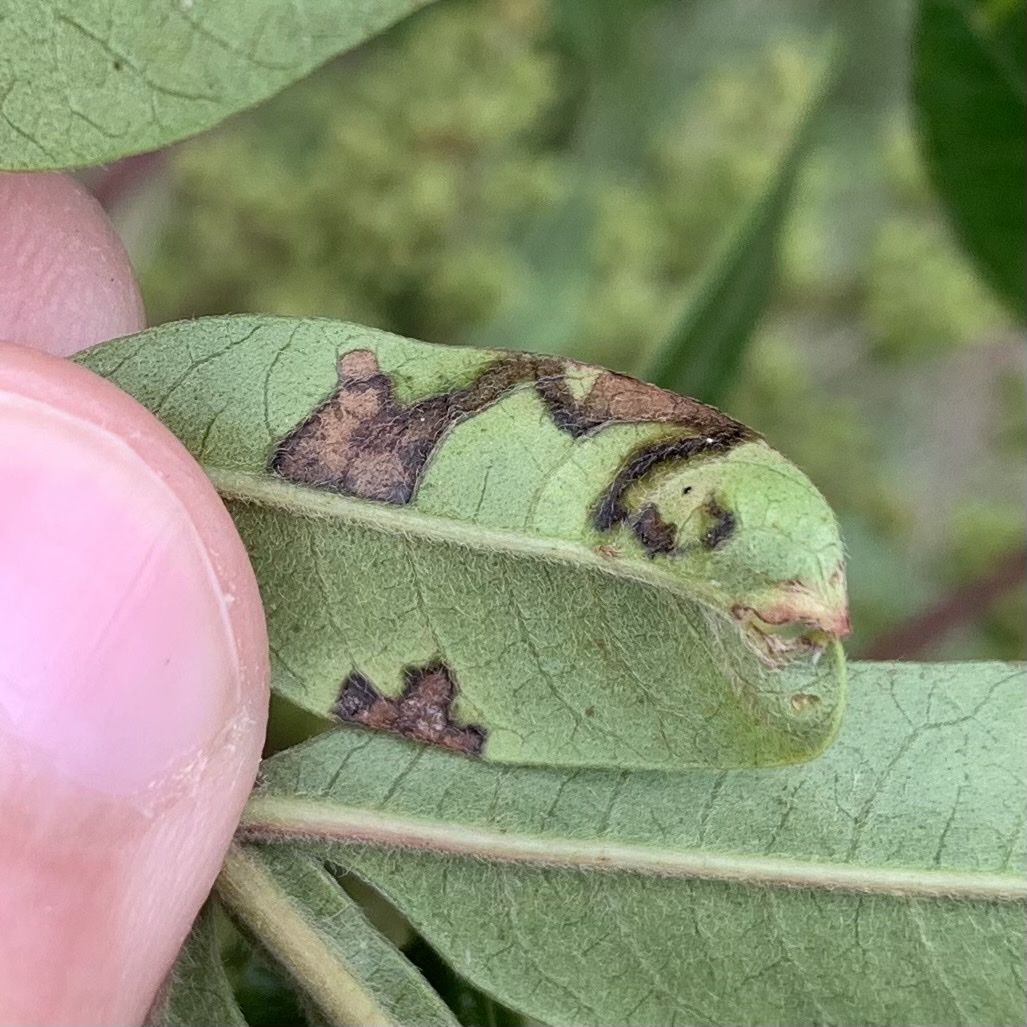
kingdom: Animalia
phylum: Arthropoda
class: Insecta
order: Lepidoptera
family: Nepticulidae
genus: Stigmella
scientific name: Stigmella intermedia
